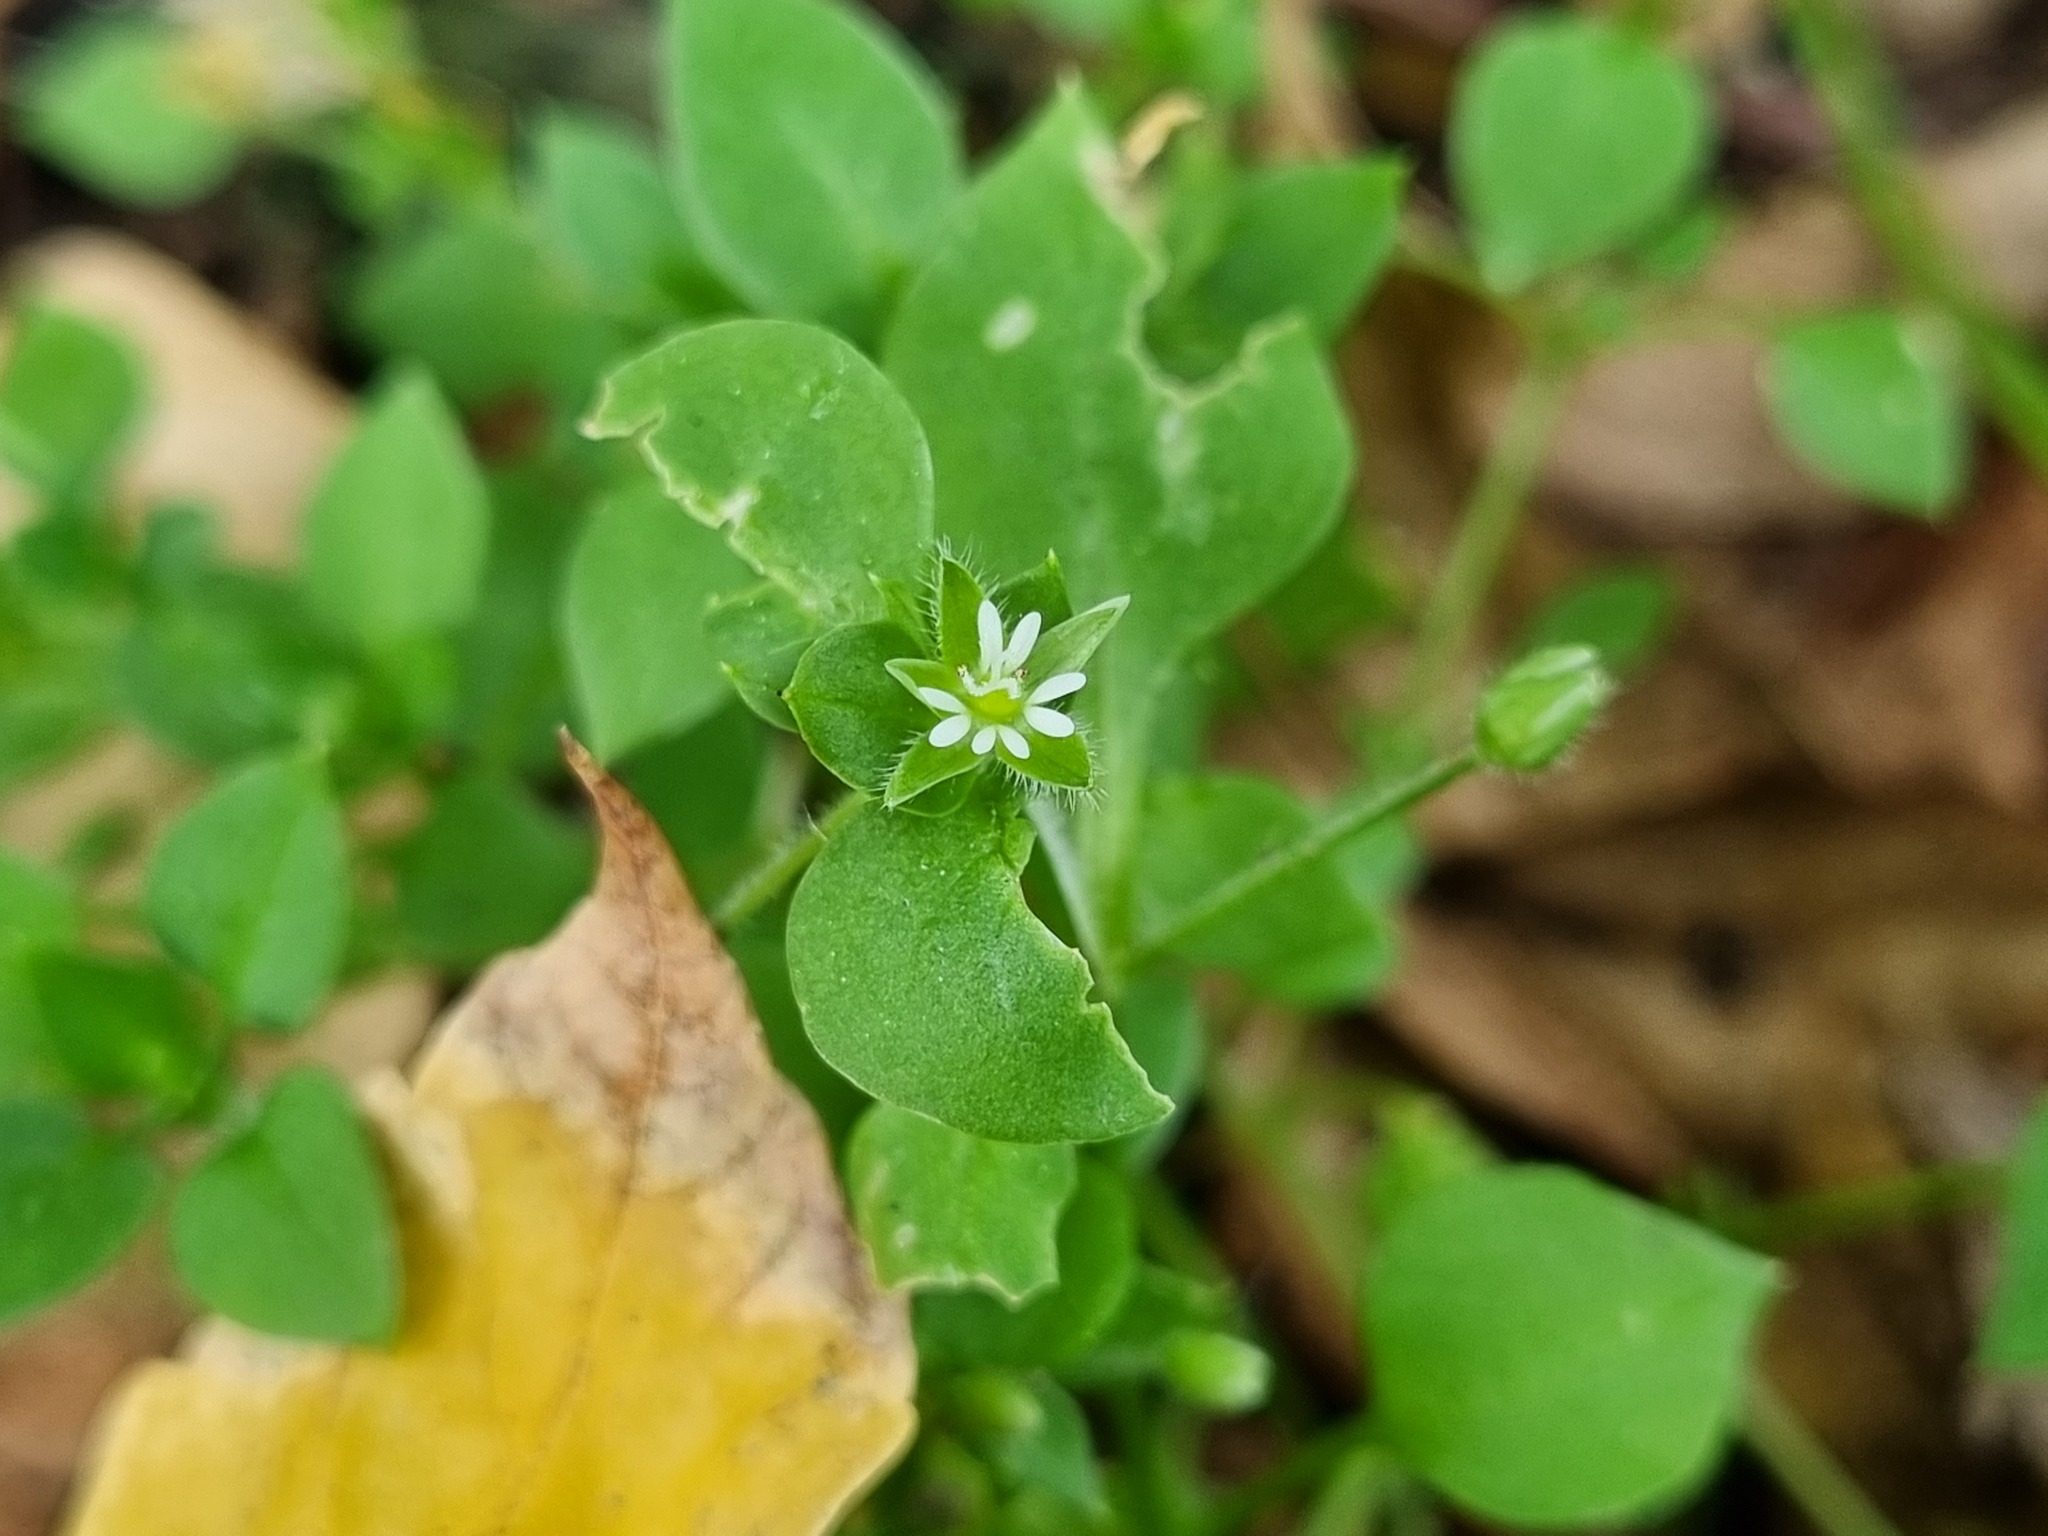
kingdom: Plantae
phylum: Tracheophyta
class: Magnoliopsida
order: Caryophyllales
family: Caryophyllaceae
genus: Stellaria
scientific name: Stellaria media
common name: Common chickweed
